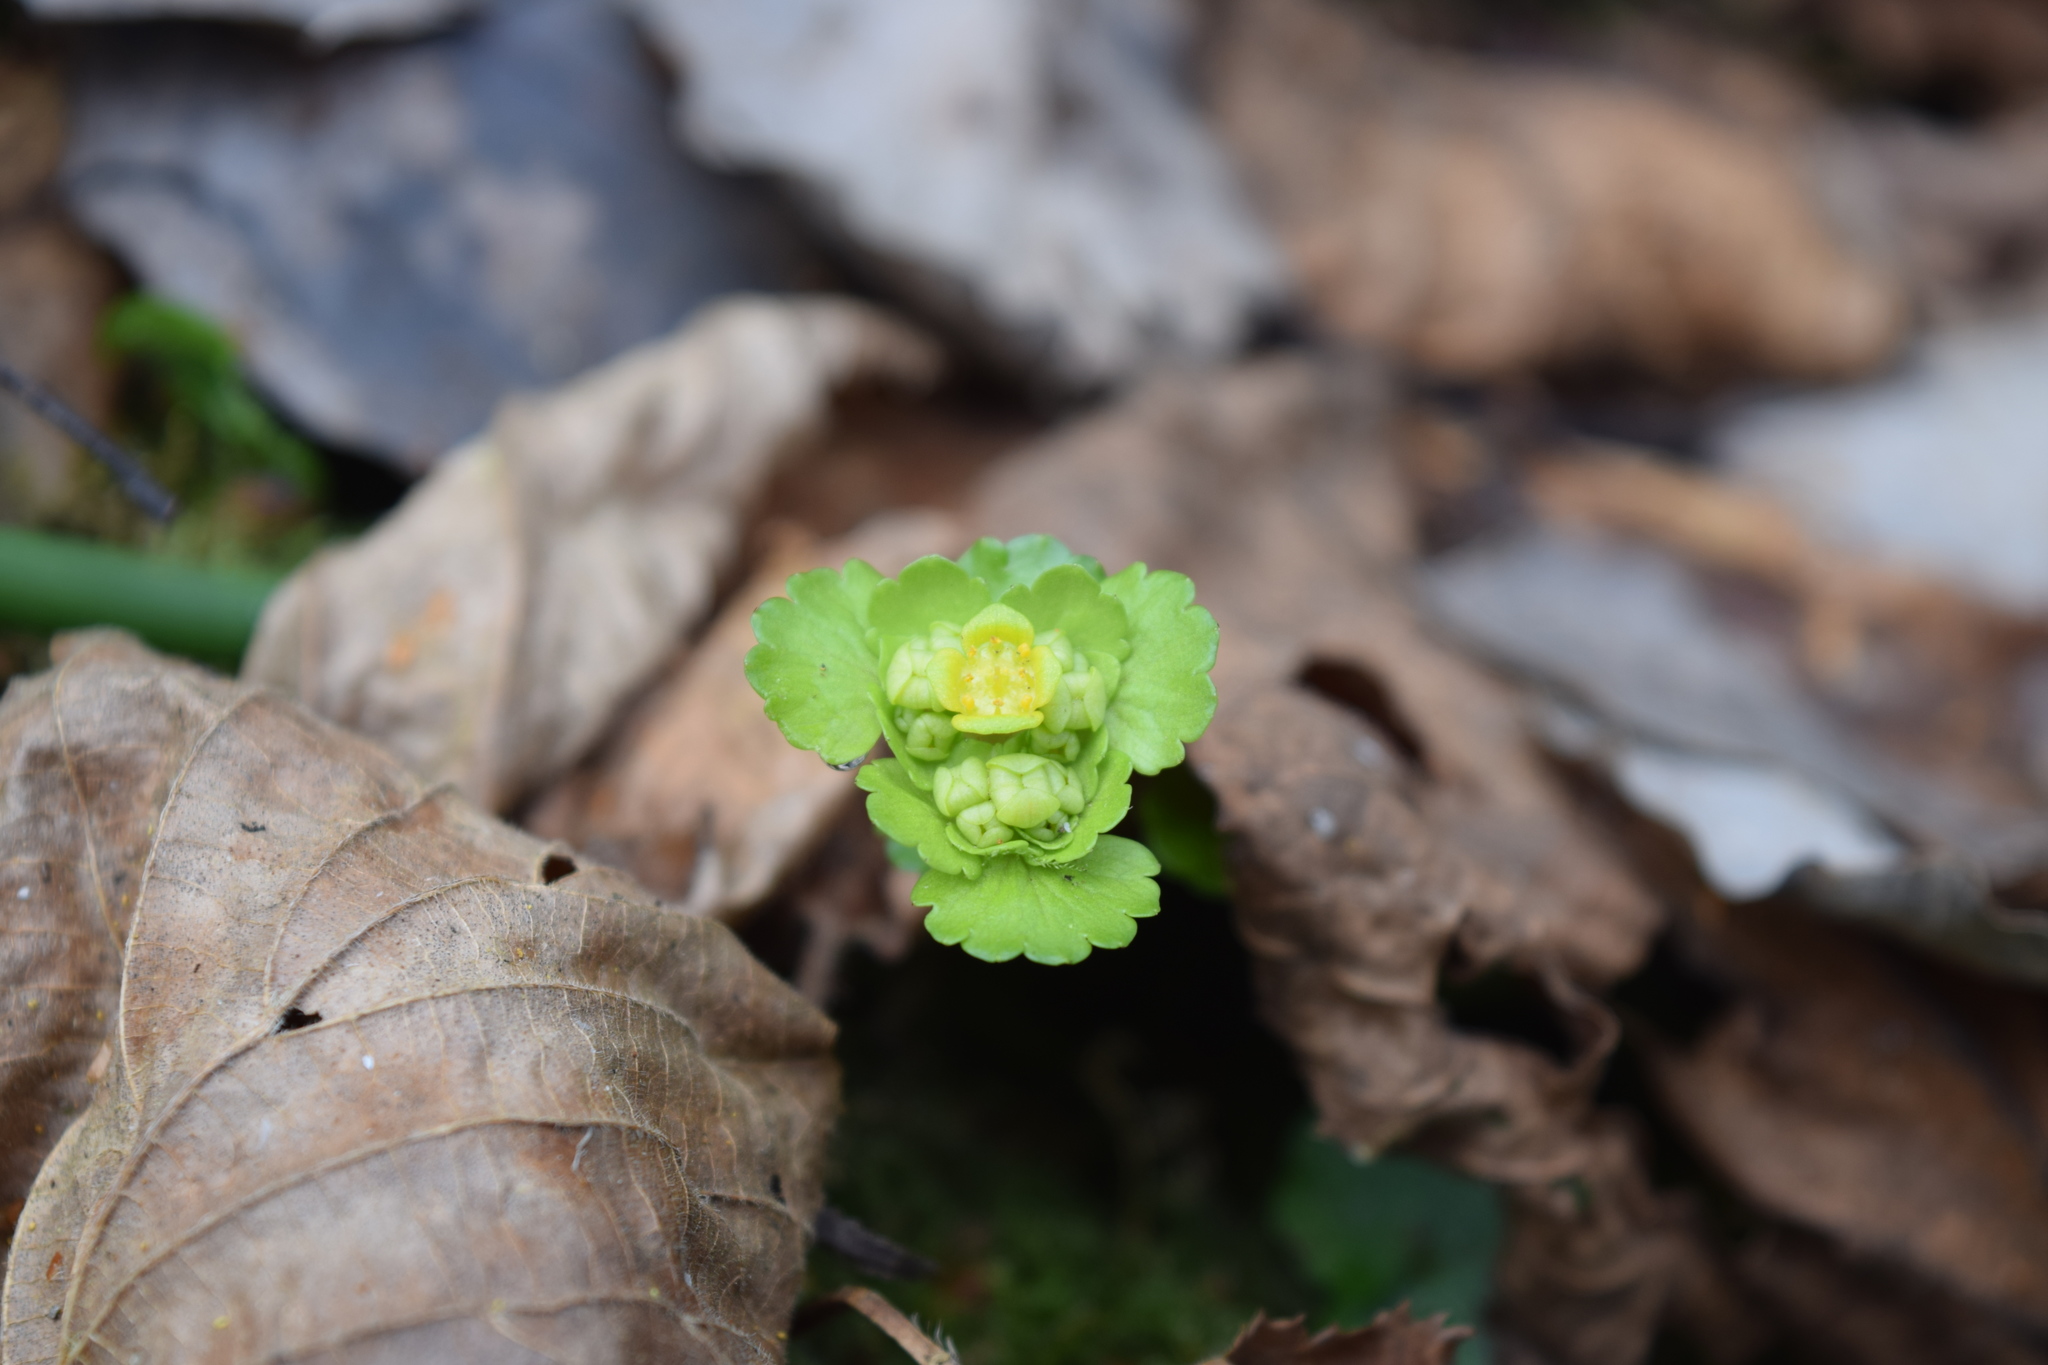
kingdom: Plantae
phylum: Tracheophyta
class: Magnoliopsida
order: Saxifragales
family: Saxifragaceae
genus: Chrysosplenium
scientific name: Chrysosplenium alternifolium
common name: Alternate-leaved golden-saxifrage
